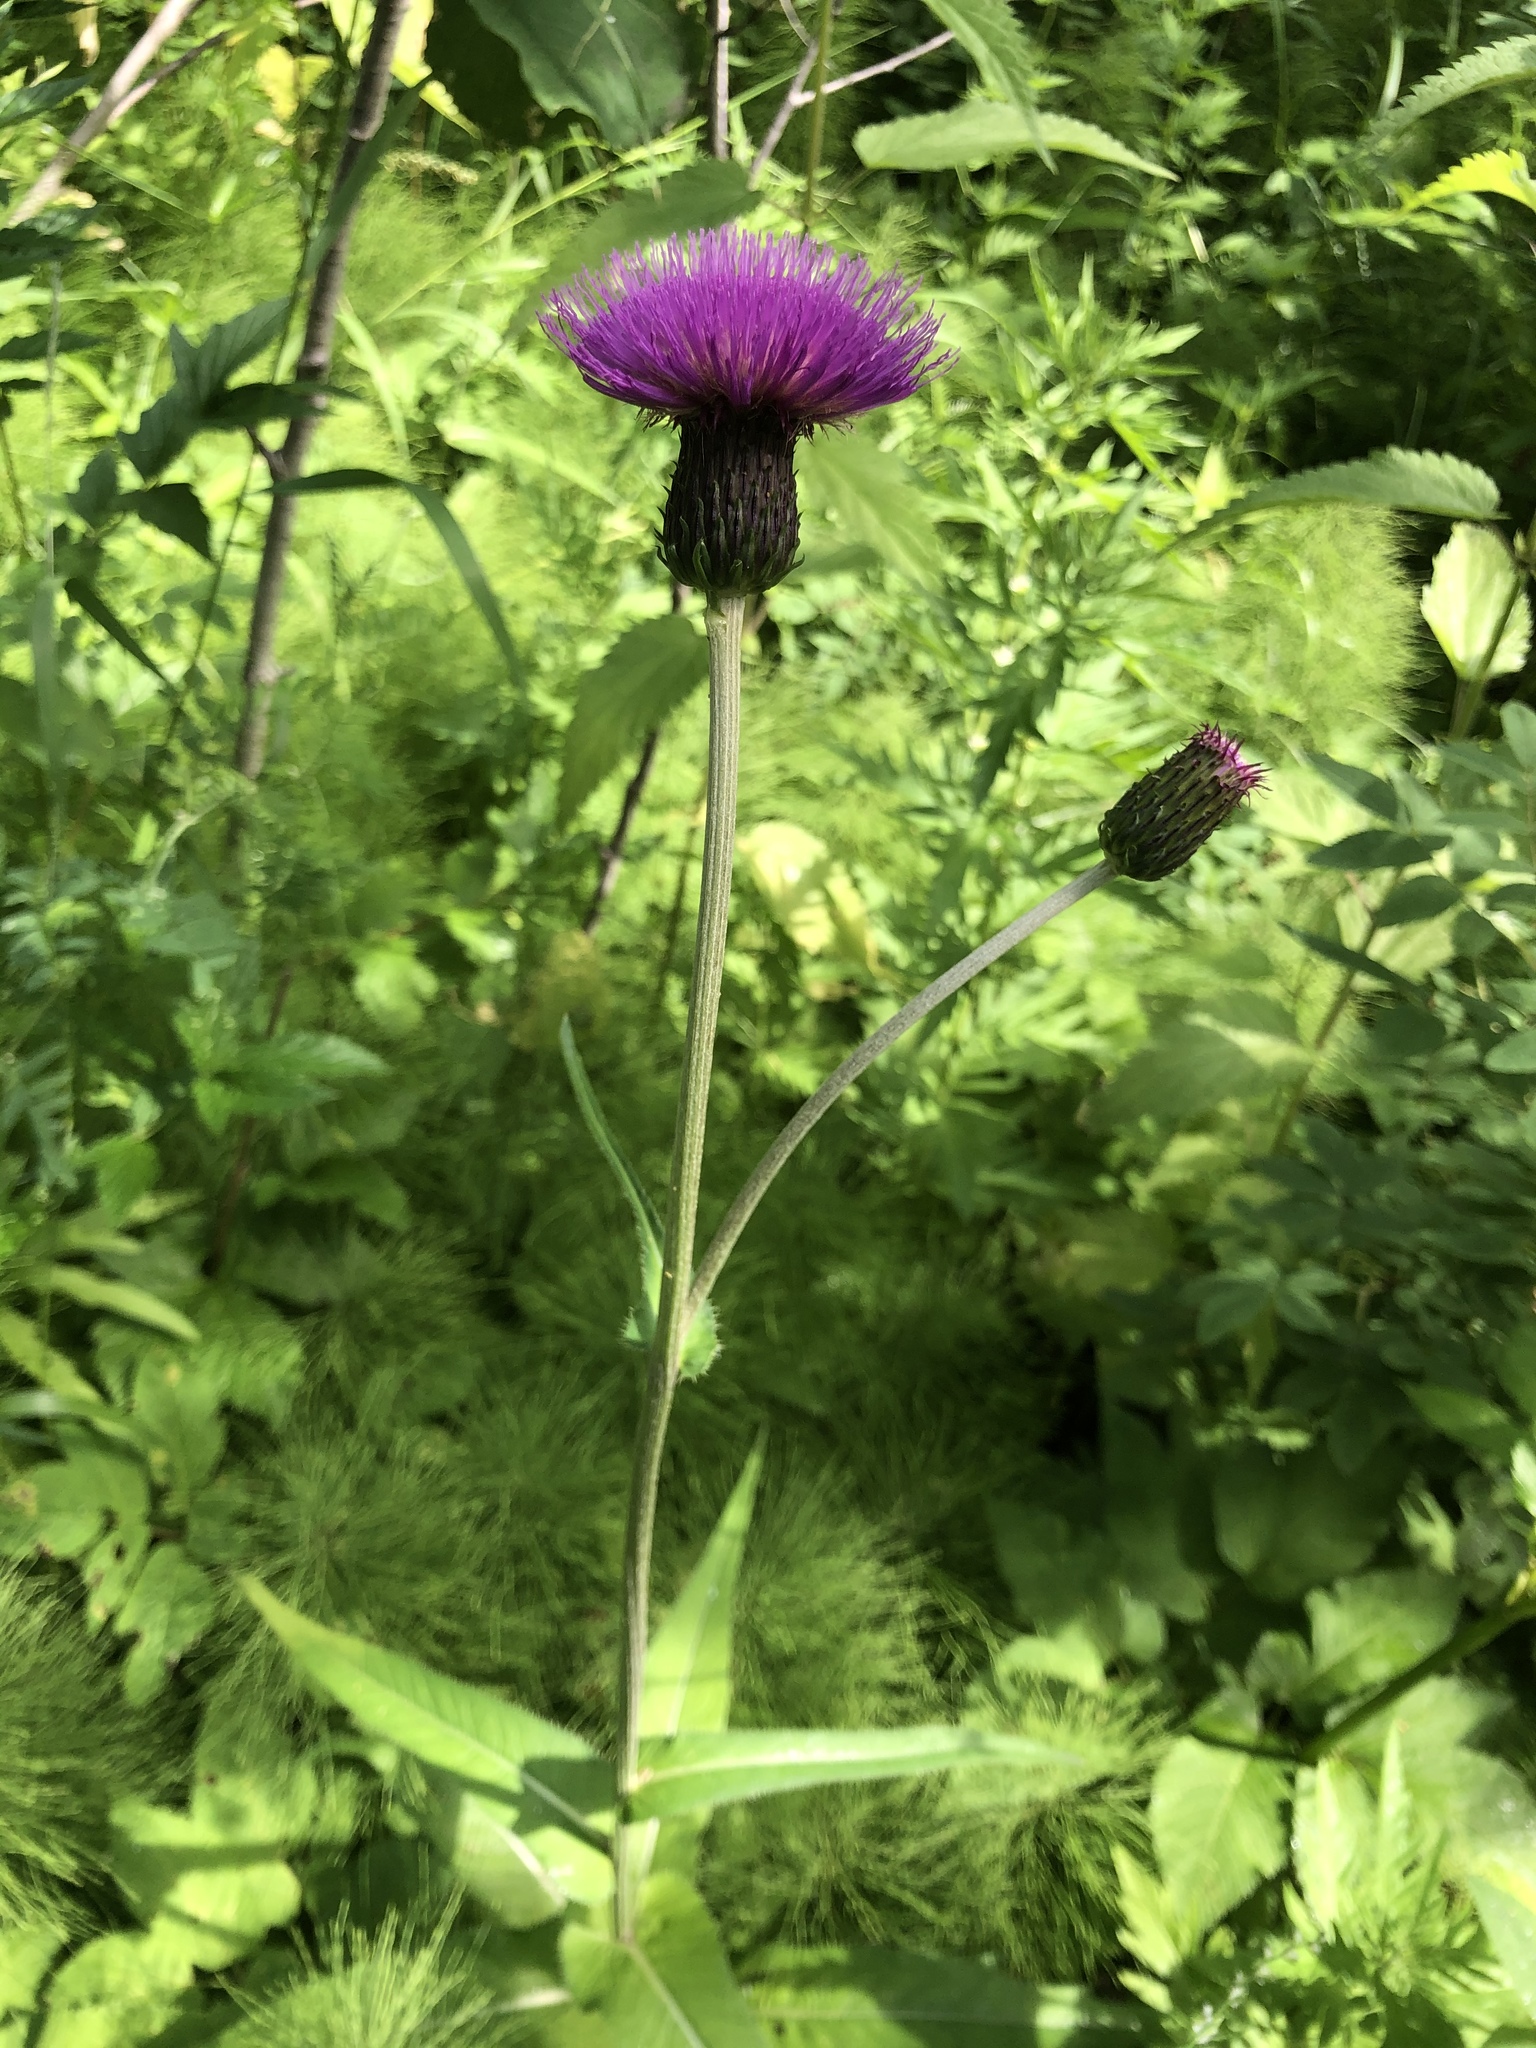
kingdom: Plantae
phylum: Tracheophyta
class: Magnoliopsida
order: Asterales
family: Asteraceae
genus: Cirsium
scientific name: Cirsium heterophyllum
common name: Melancholy thistle
